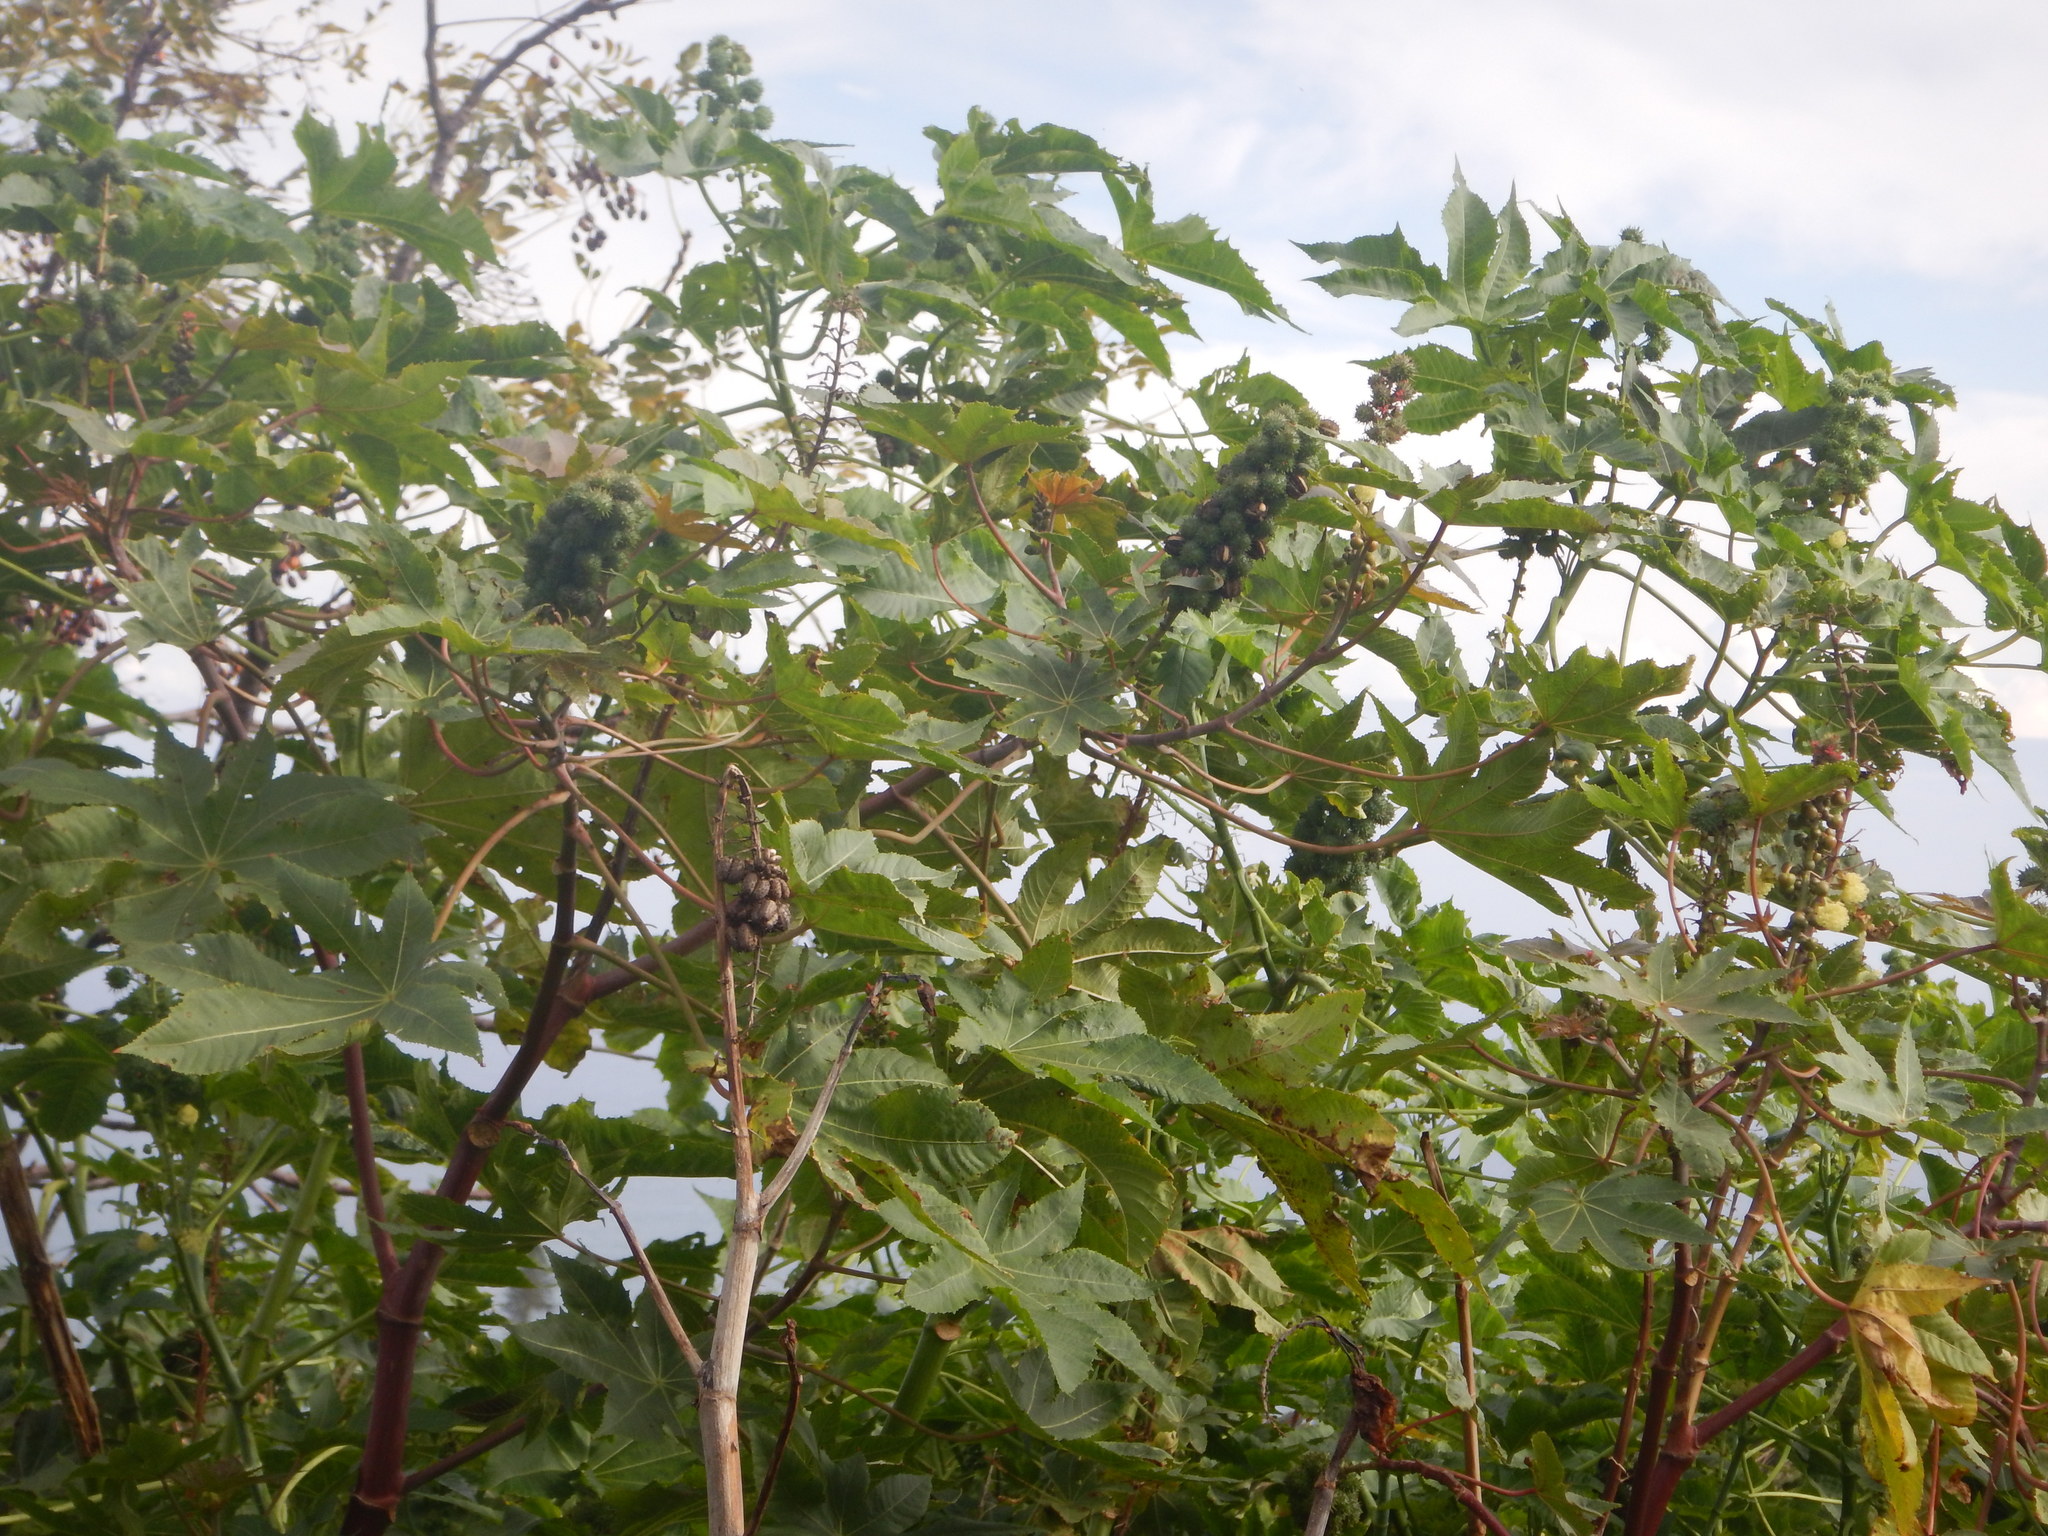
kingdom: Plantae
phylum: Tracheophyta
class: Magnoliopsida
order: Malpighiales
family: Euphorbiaceae
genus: Ricinus
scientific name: Ricinus communis
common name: Castor-oil-plant
